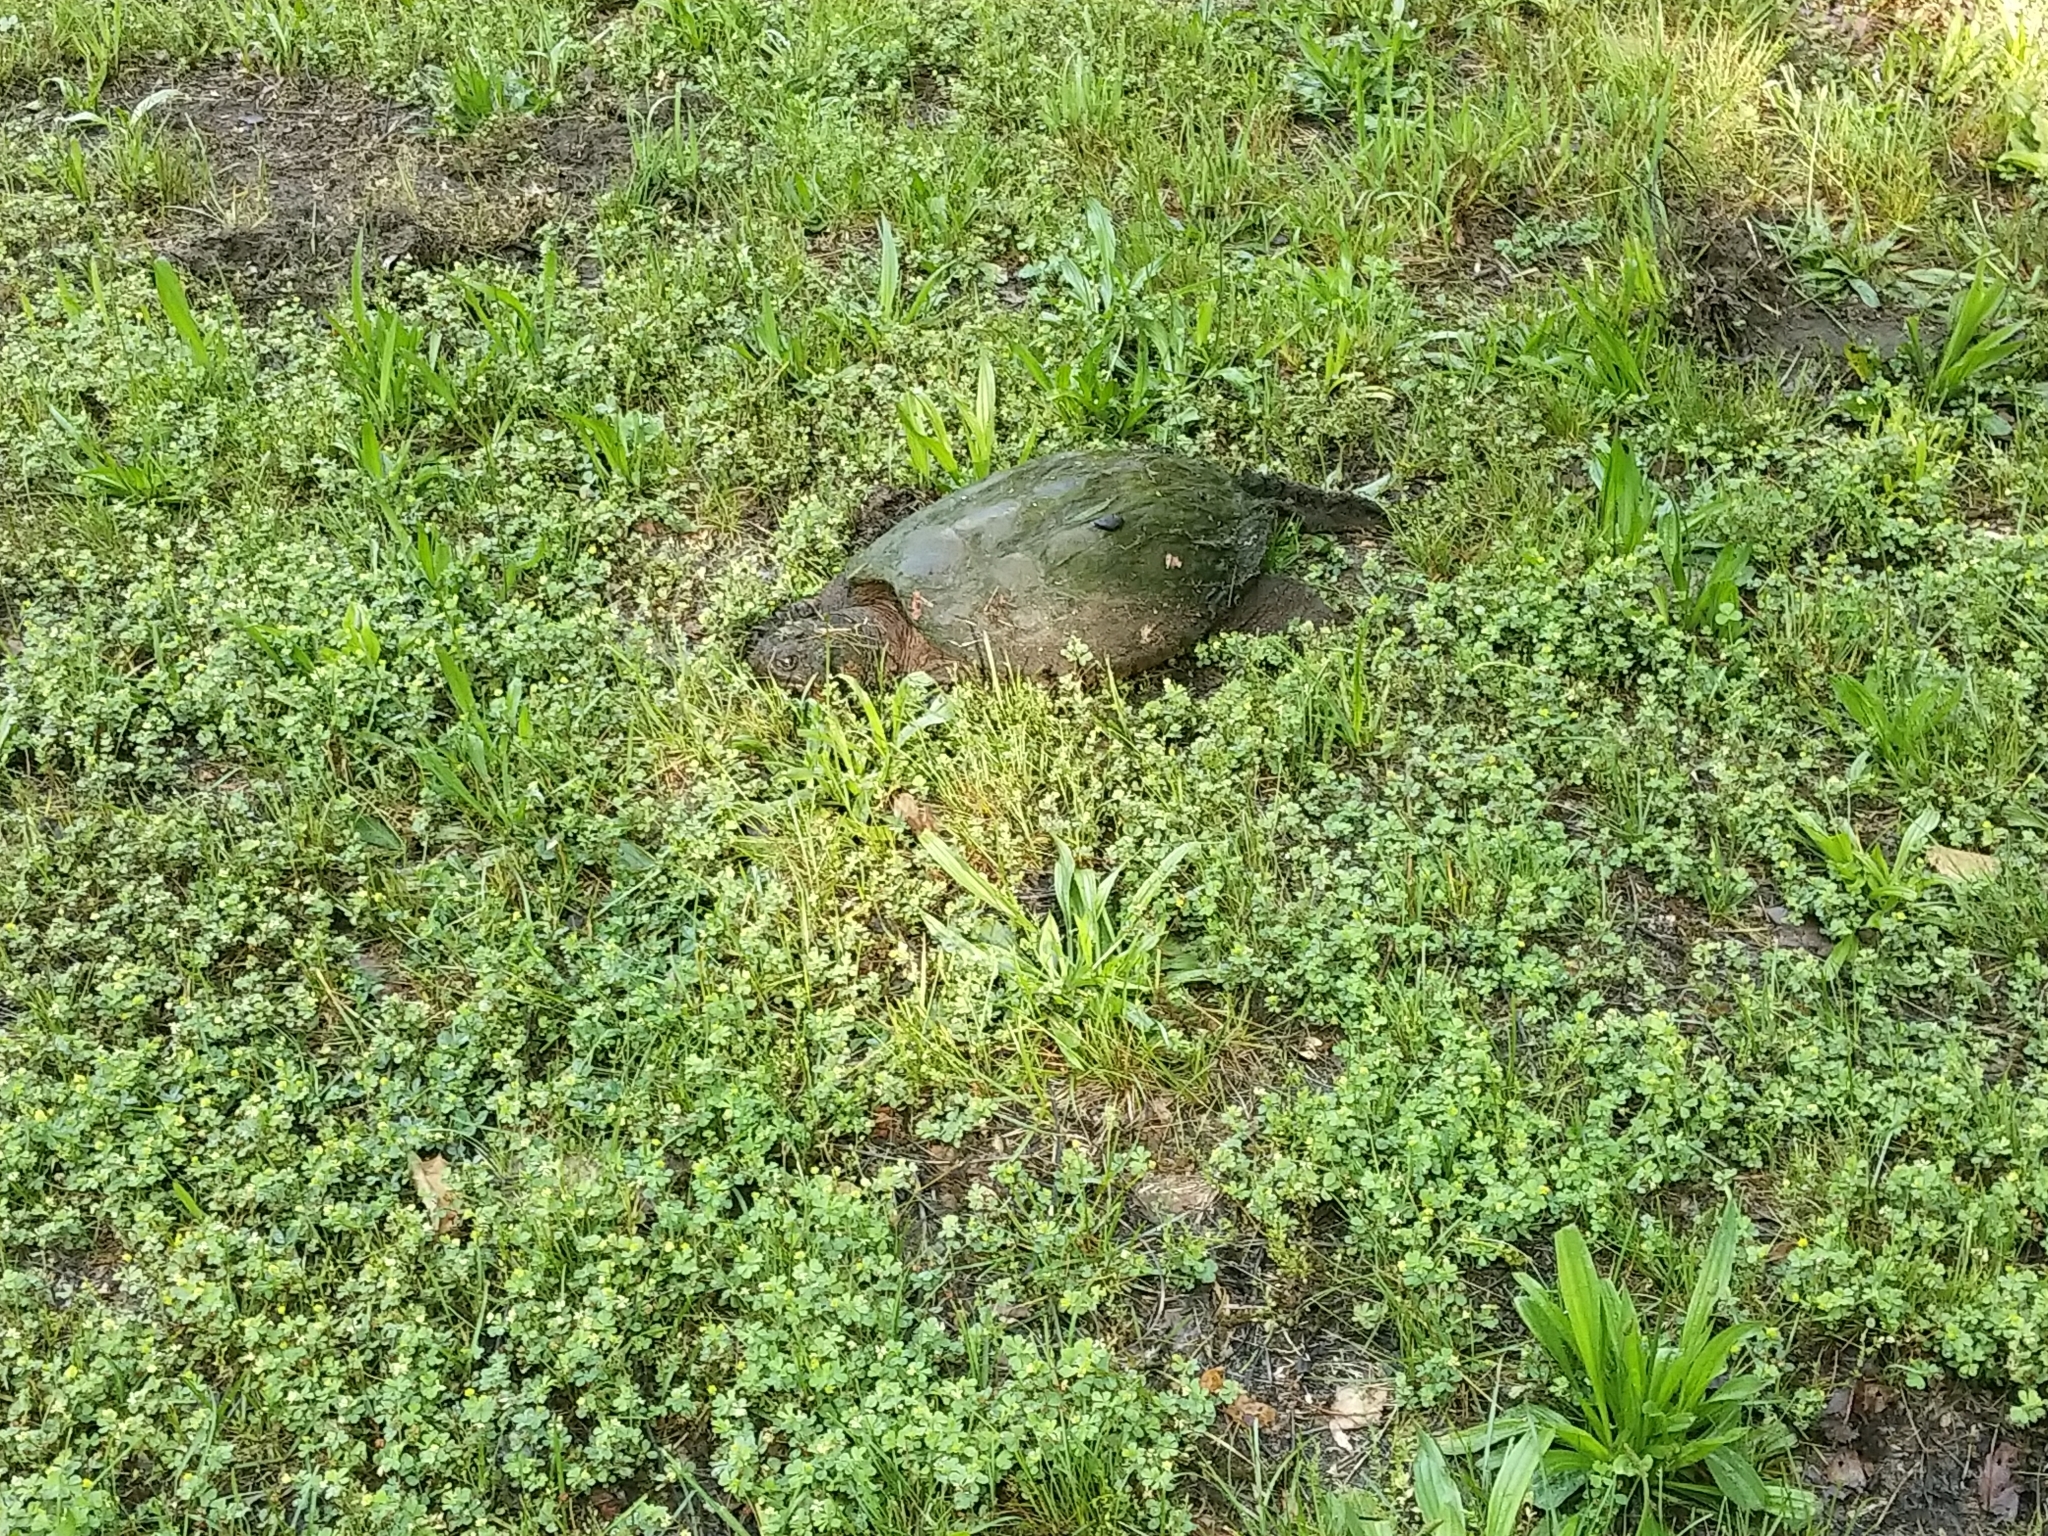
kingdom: Animalia
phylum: Chordata
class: Testudines
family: Chelydridae
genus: Chelydra
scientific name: Chelydra serpentina
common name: Common snapping turtle
